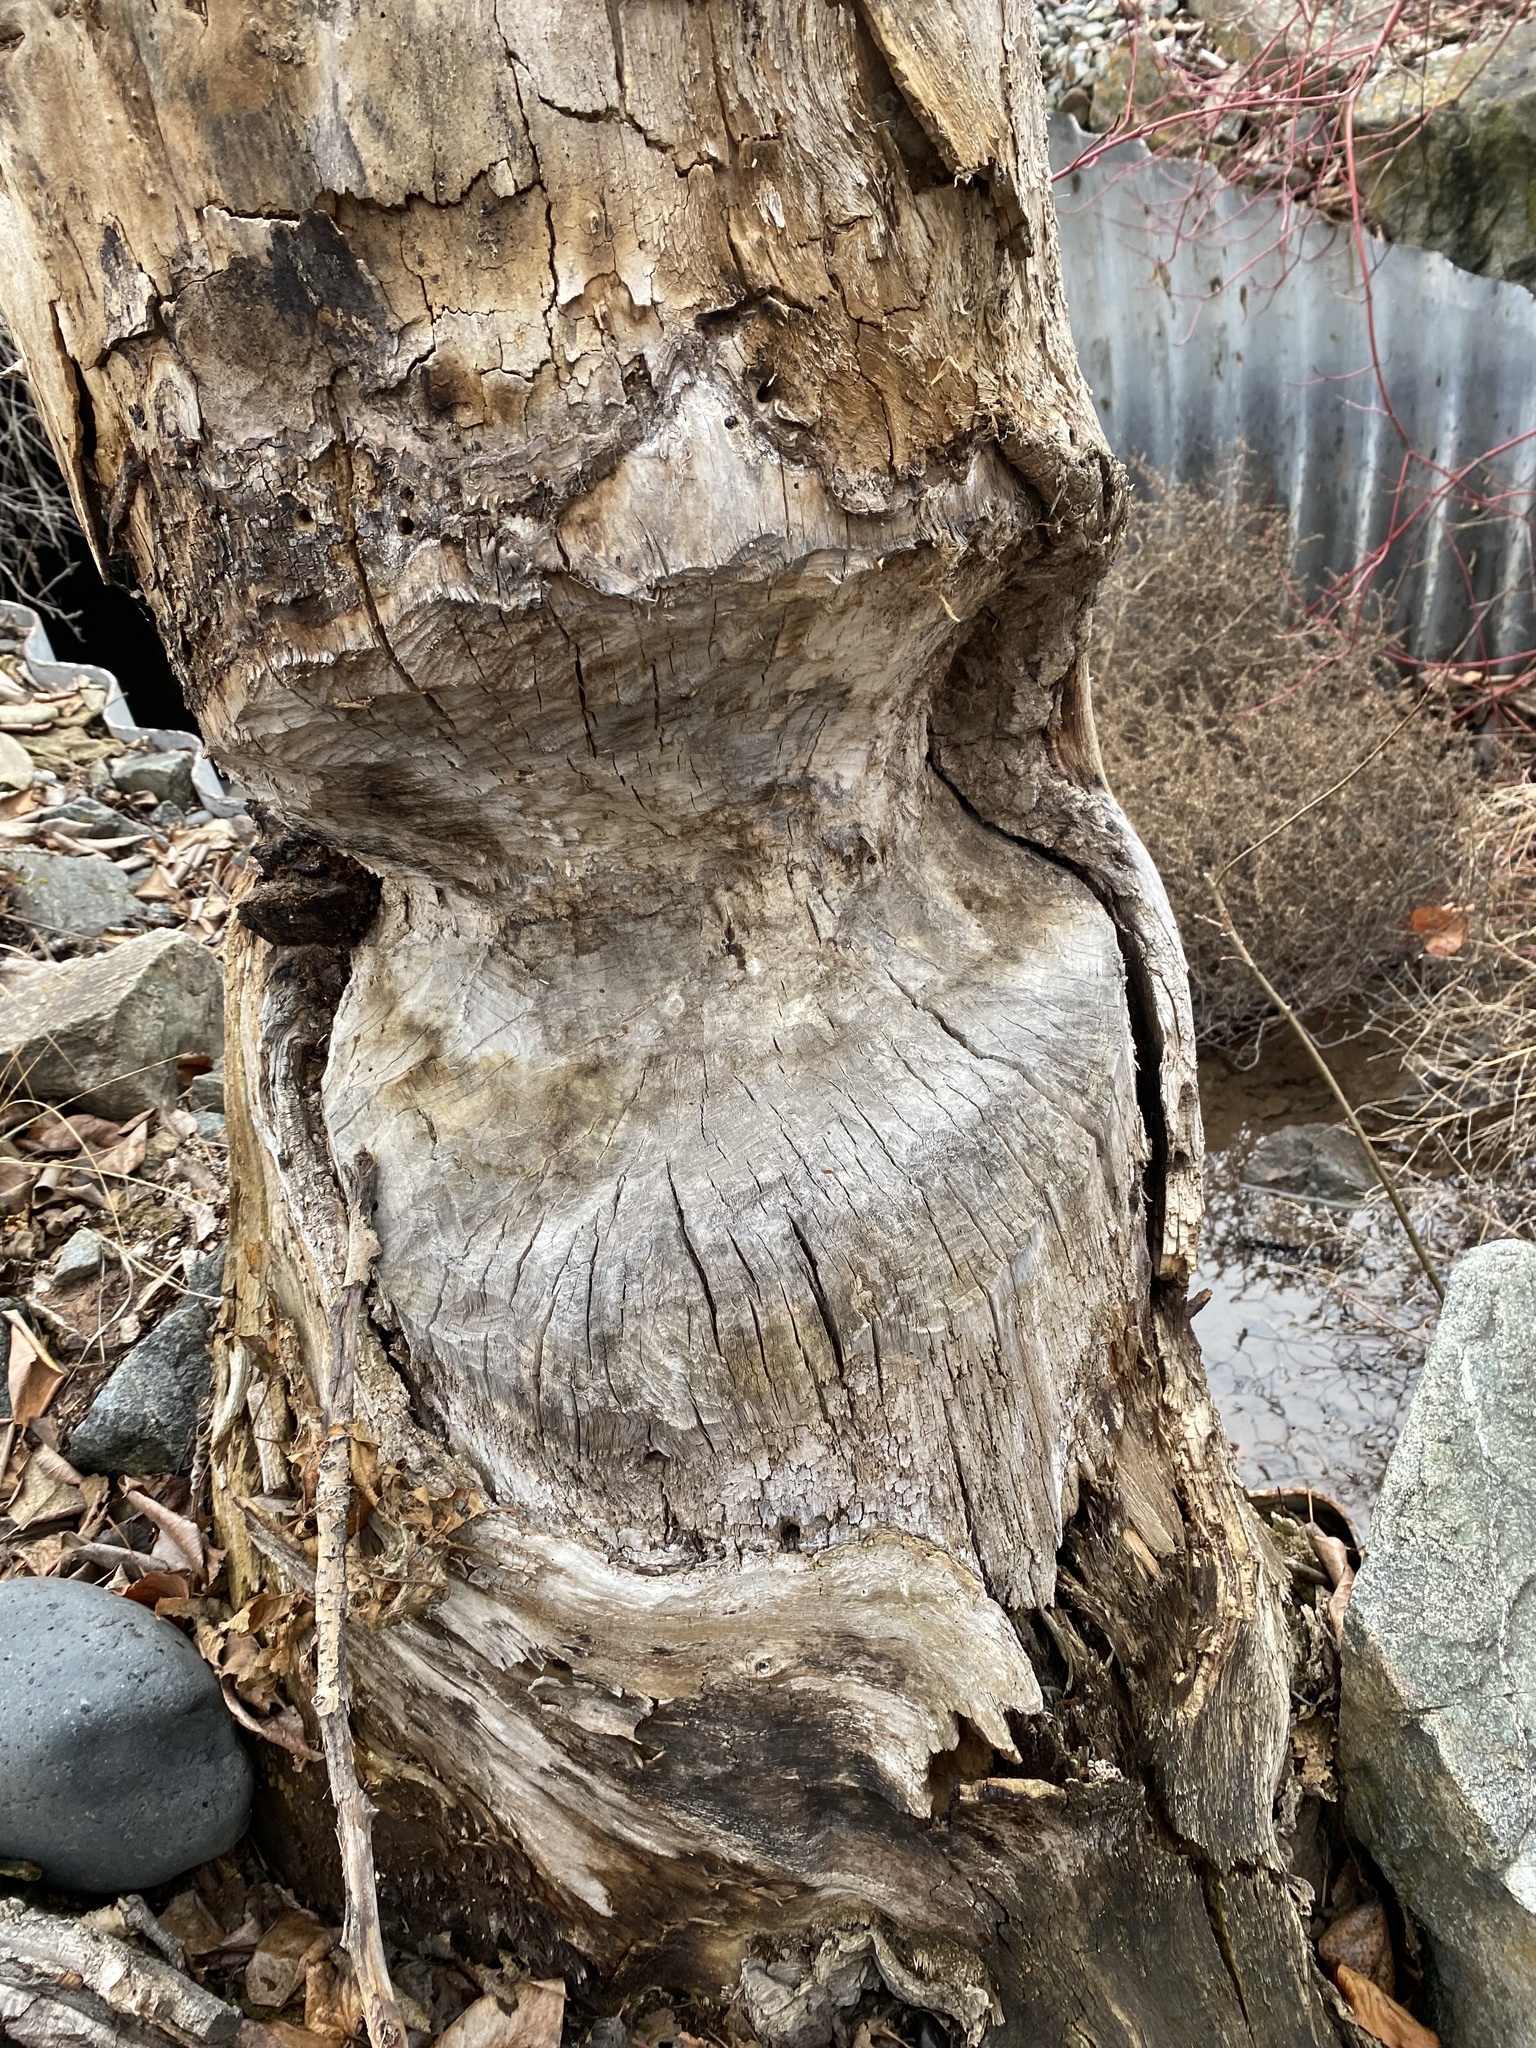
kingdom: Animalia
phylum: Chordata
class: Mammalia
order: Rodentia
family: Castoridae
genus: Castor
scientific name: Castor canadensis
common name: American beaver
